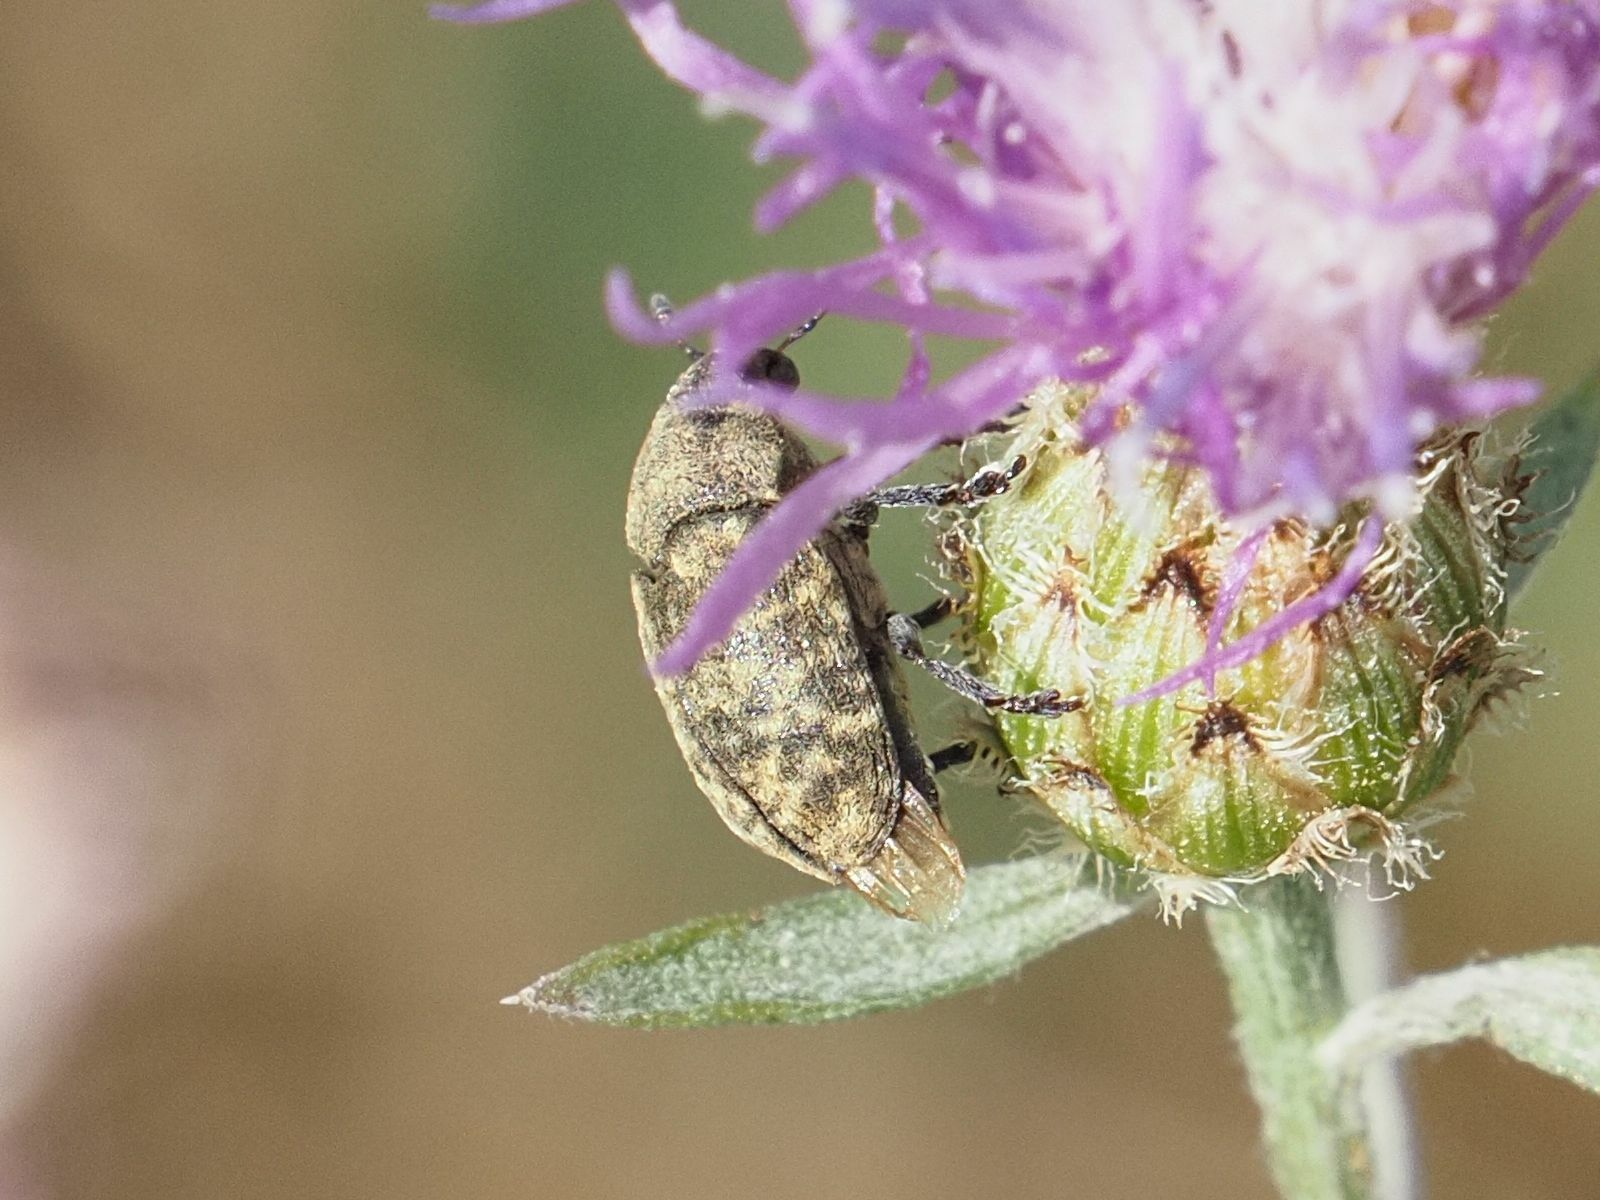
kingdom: Animalia
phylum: Arthropoda
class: Insecta
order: Coleoptera
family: Curculionidae
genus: Larinus
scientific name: Larinus obtusus
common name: Weevil
